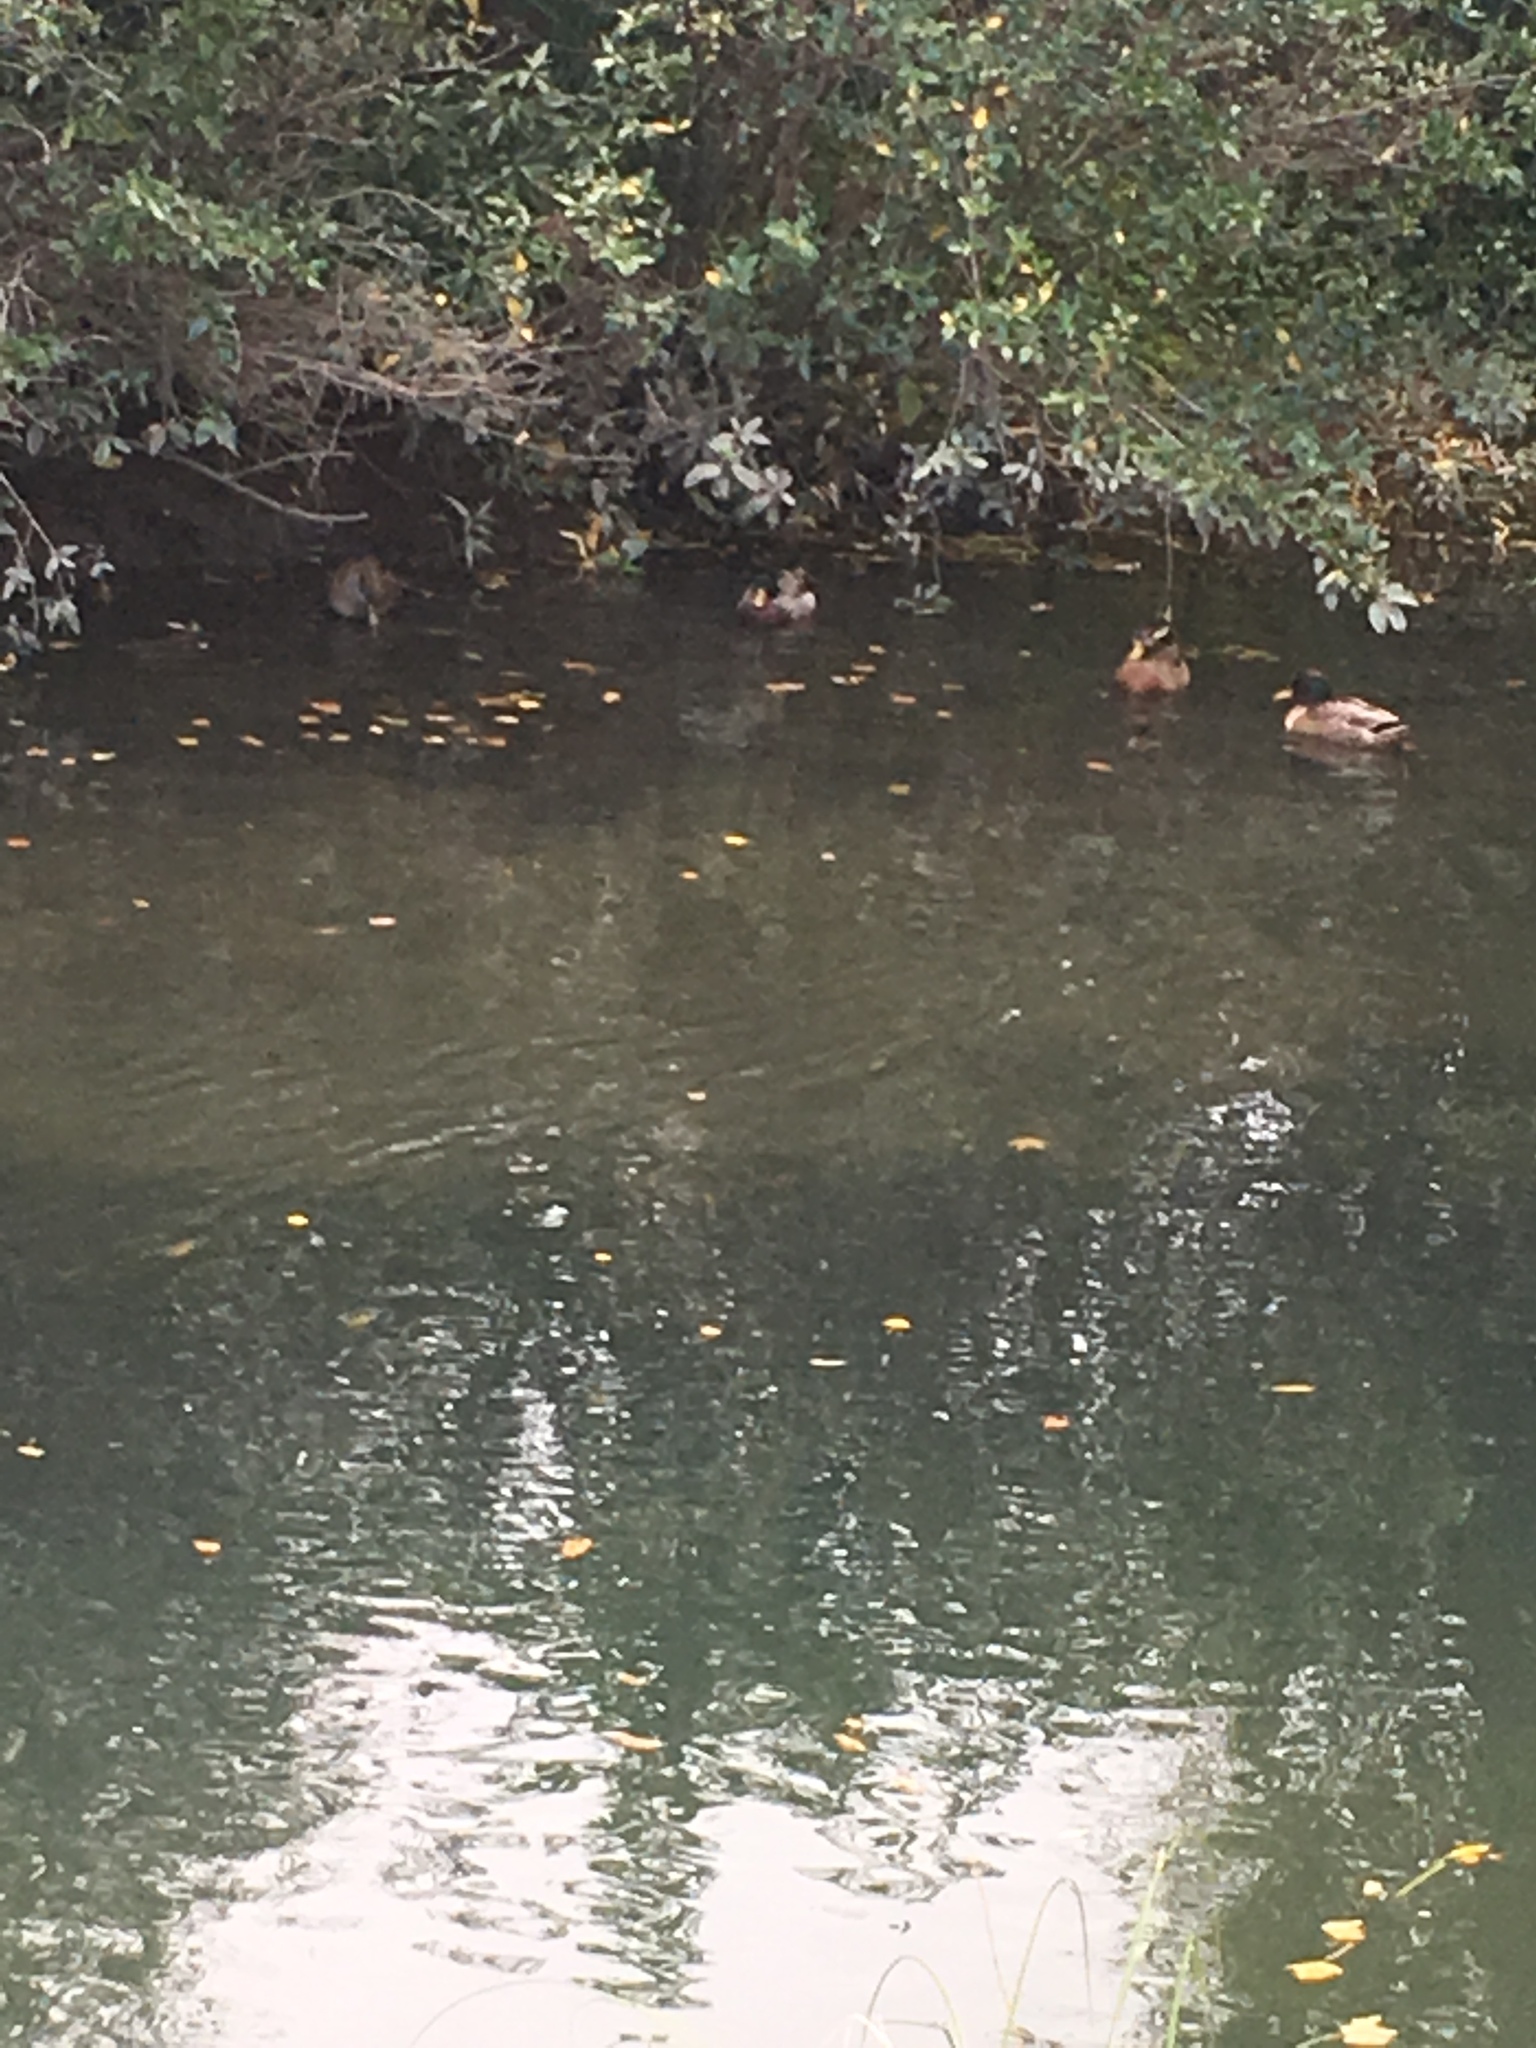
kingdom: Animalia
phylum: Chordata
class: Aves
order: Anseriformes
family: Anatidae
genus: Anas
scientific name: Anas
